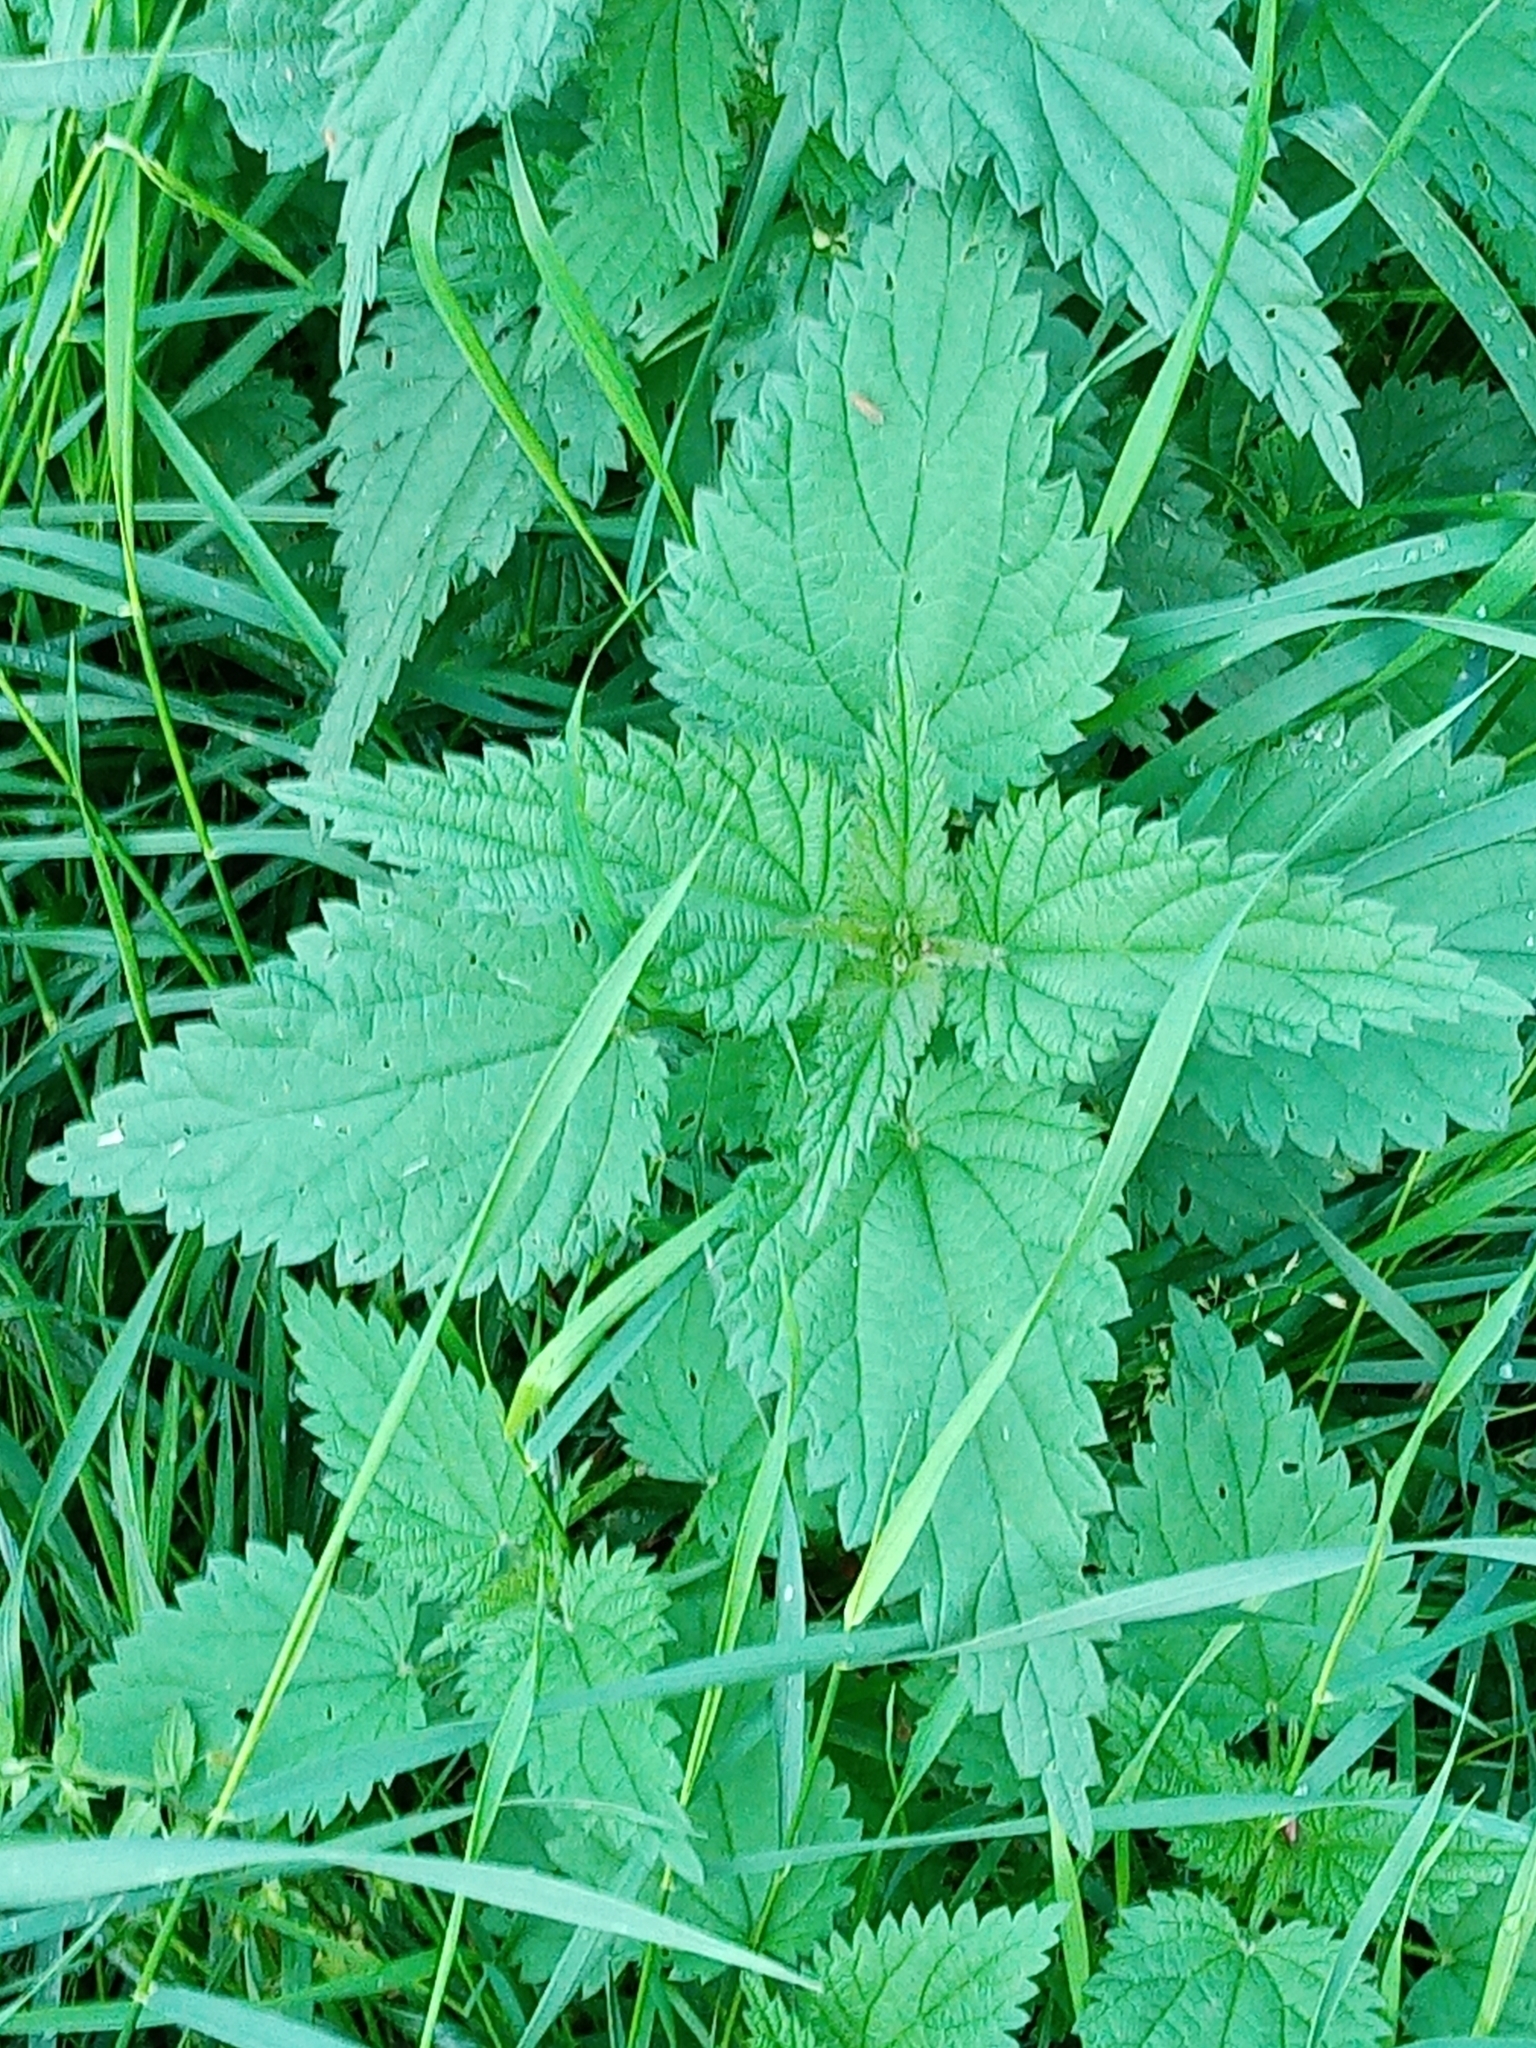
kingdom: Plantae
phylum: Tracheophyta
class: Magnoliopsida
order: Rosales
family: Urticaceae
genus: Urtica
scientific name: Urtica dioica
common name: Common nettle
